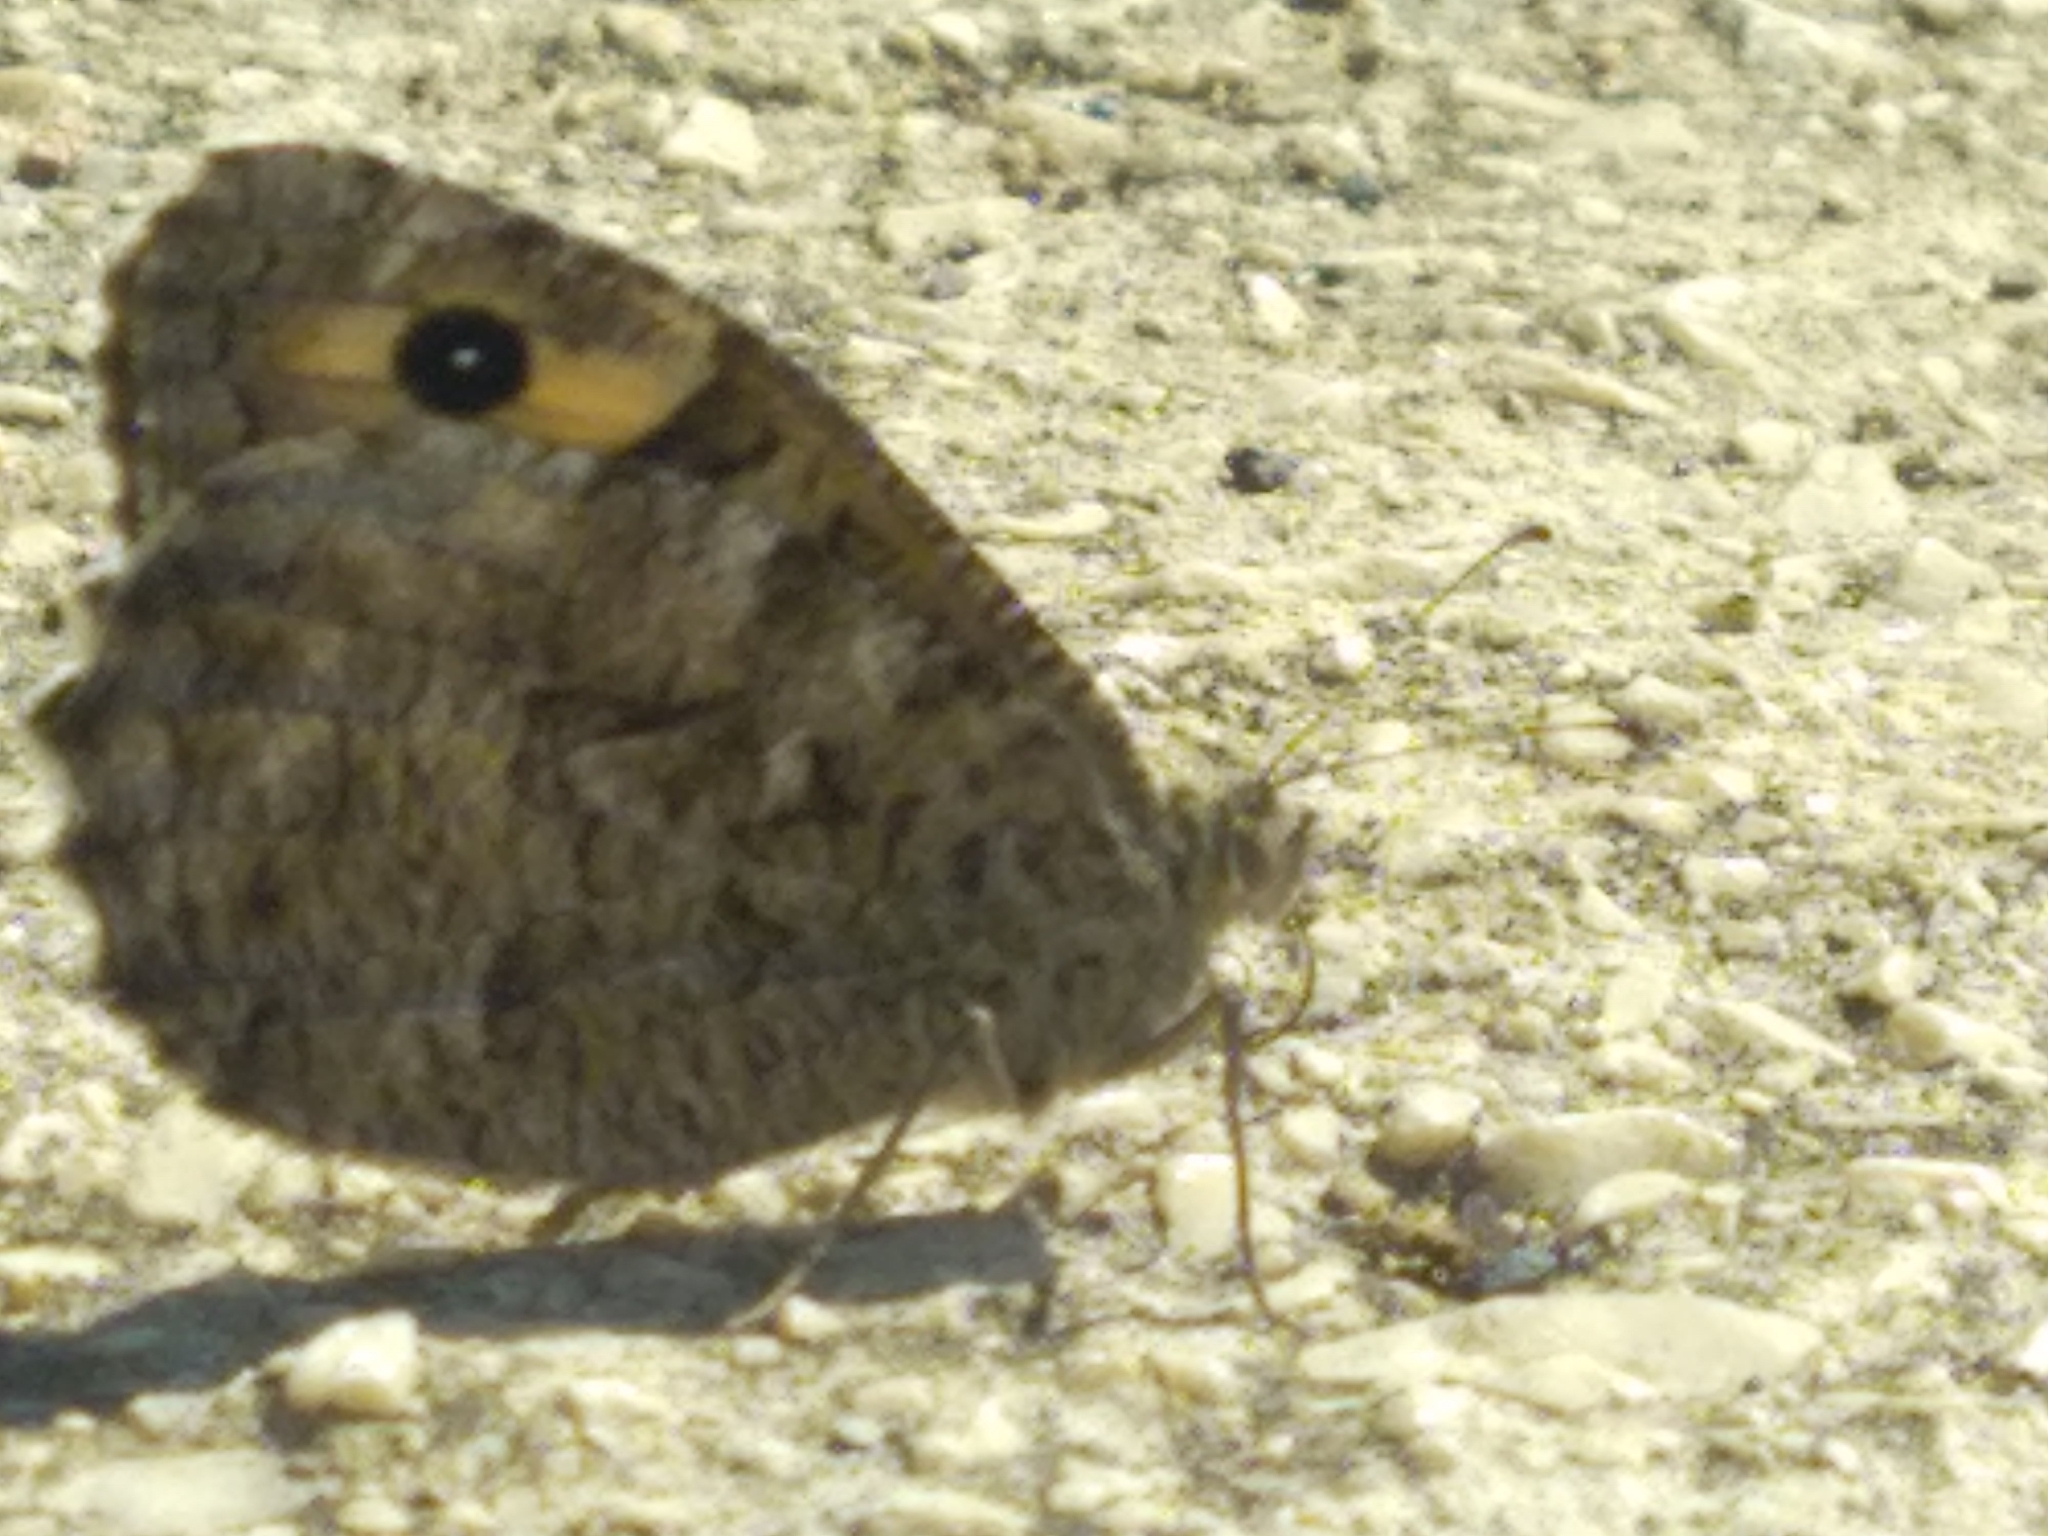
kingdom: Animalia
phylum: Arthropoda
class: Insecta
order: Lepidoptera
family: Nymphalidae
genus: Hipparchia
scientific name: Hipparchia semele
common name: Grayling
